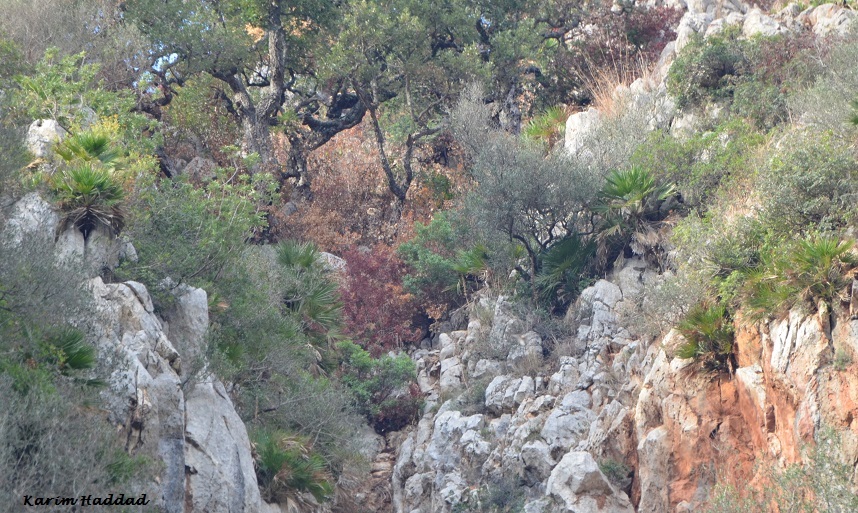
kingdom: Plantae
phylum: Tracheophyta
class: Liliopsida
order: Arecales
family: Arecaceae
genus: Chamaerops
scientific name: Chamaerops humilis
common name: Dwarf fan palm
